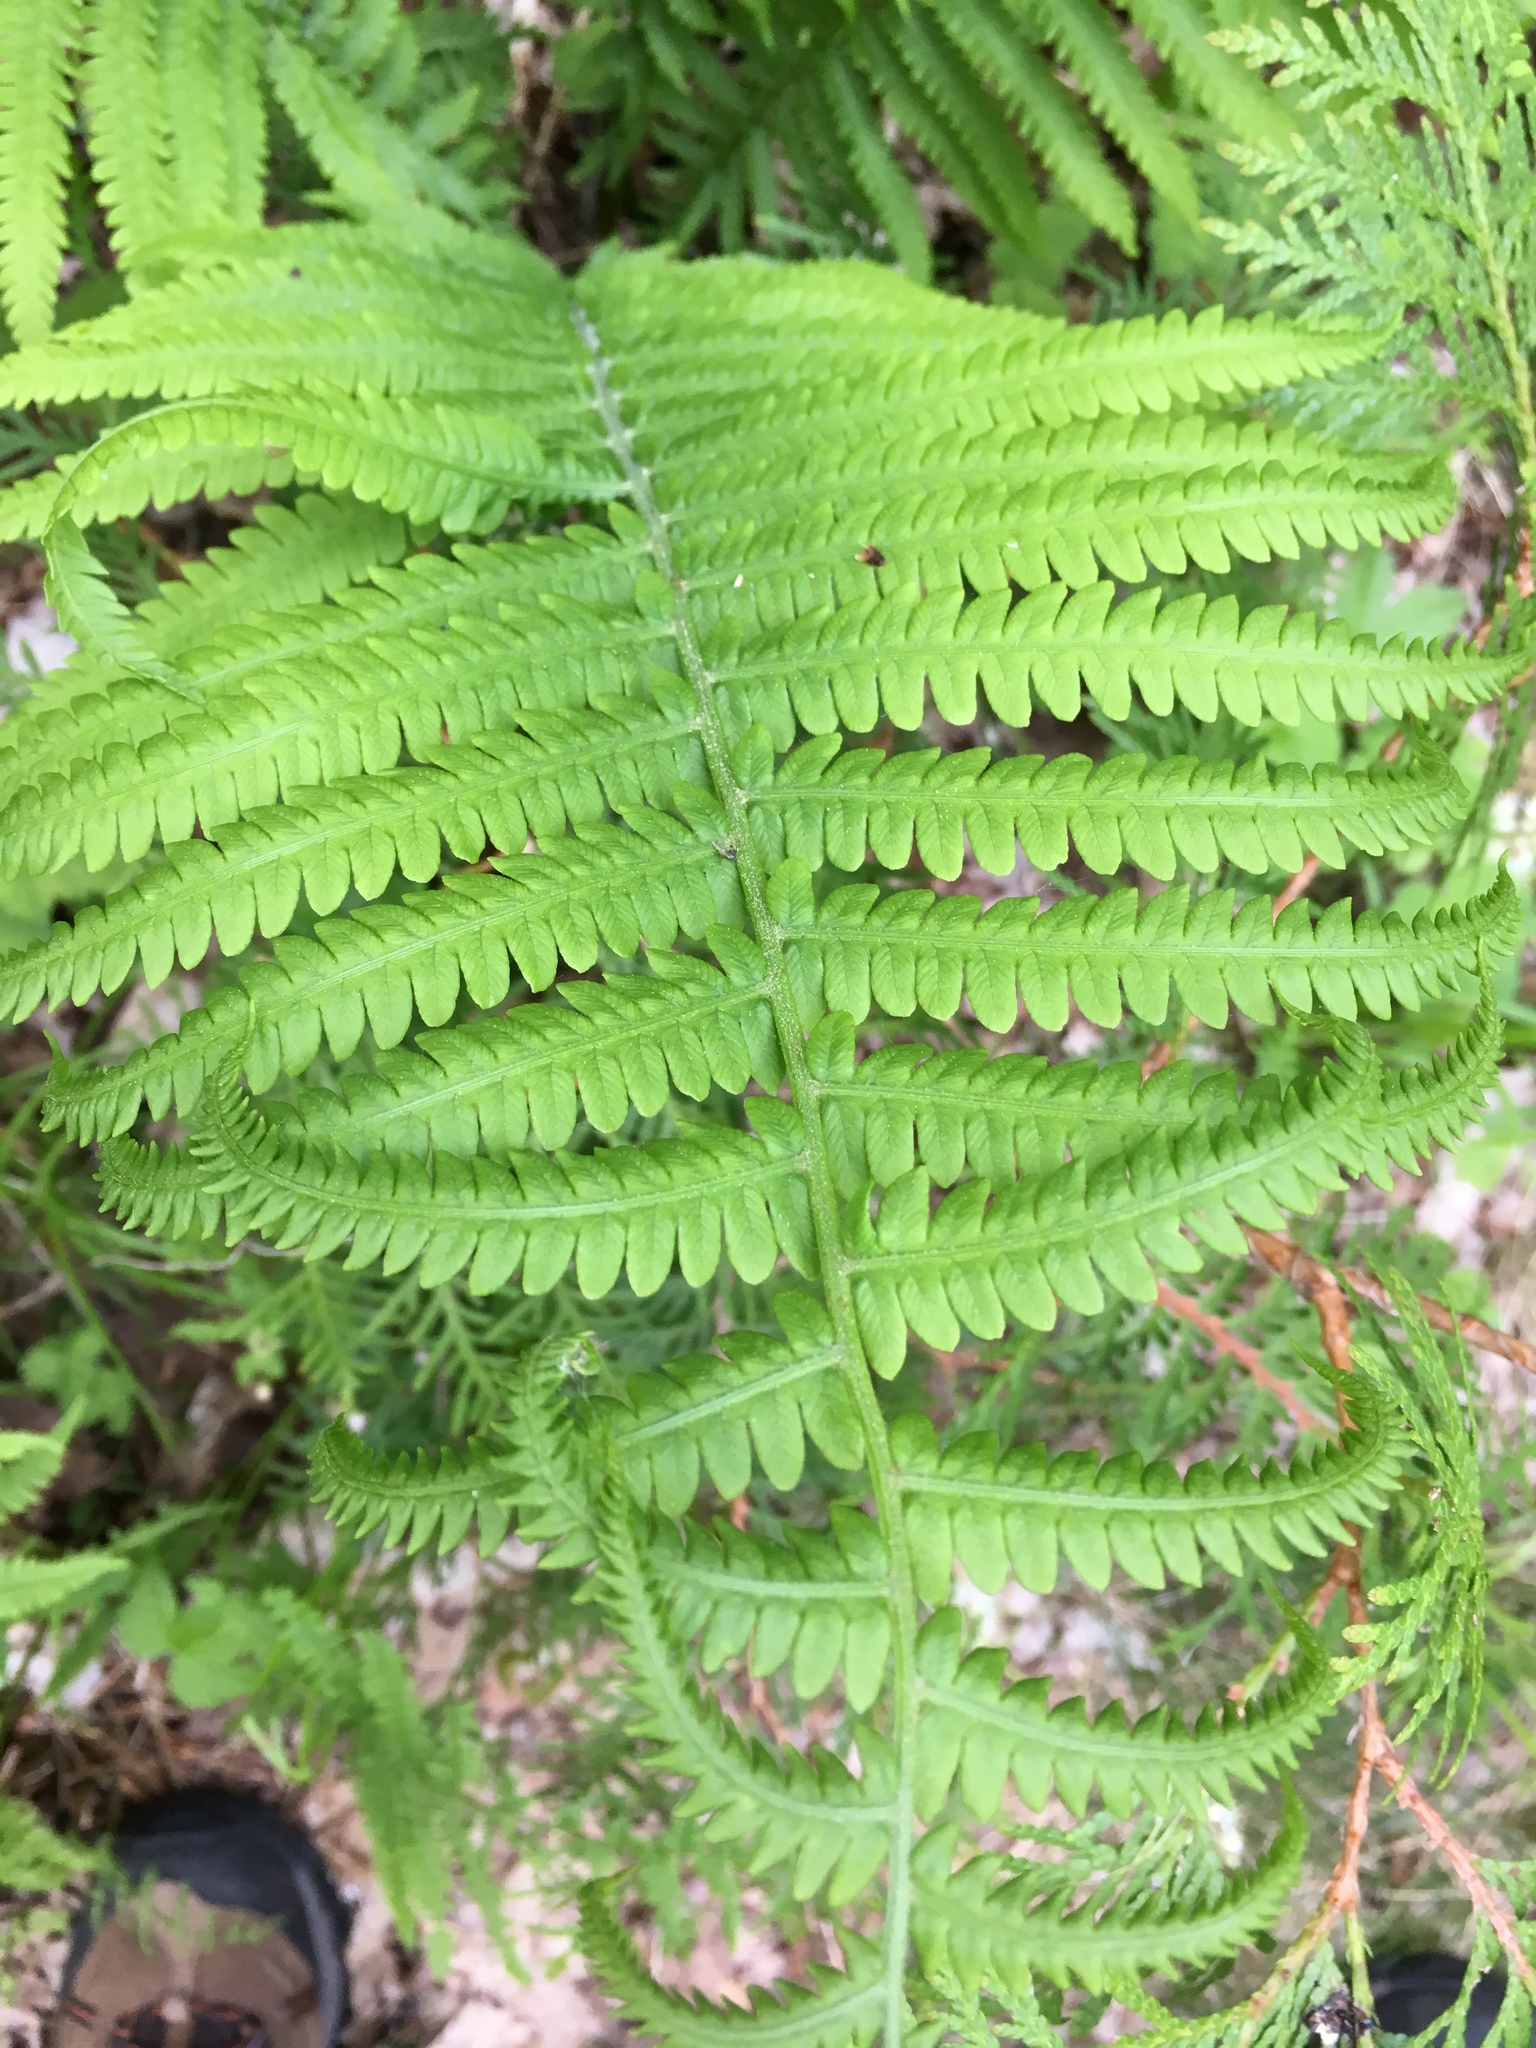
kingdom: Plantae
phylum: Tracheophyta
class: Polypodiopsida
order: Polypodiales
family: Onocleaceae
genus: Matteuccia
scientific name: Matteuccia struthiopteris
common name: Ostrich fern
